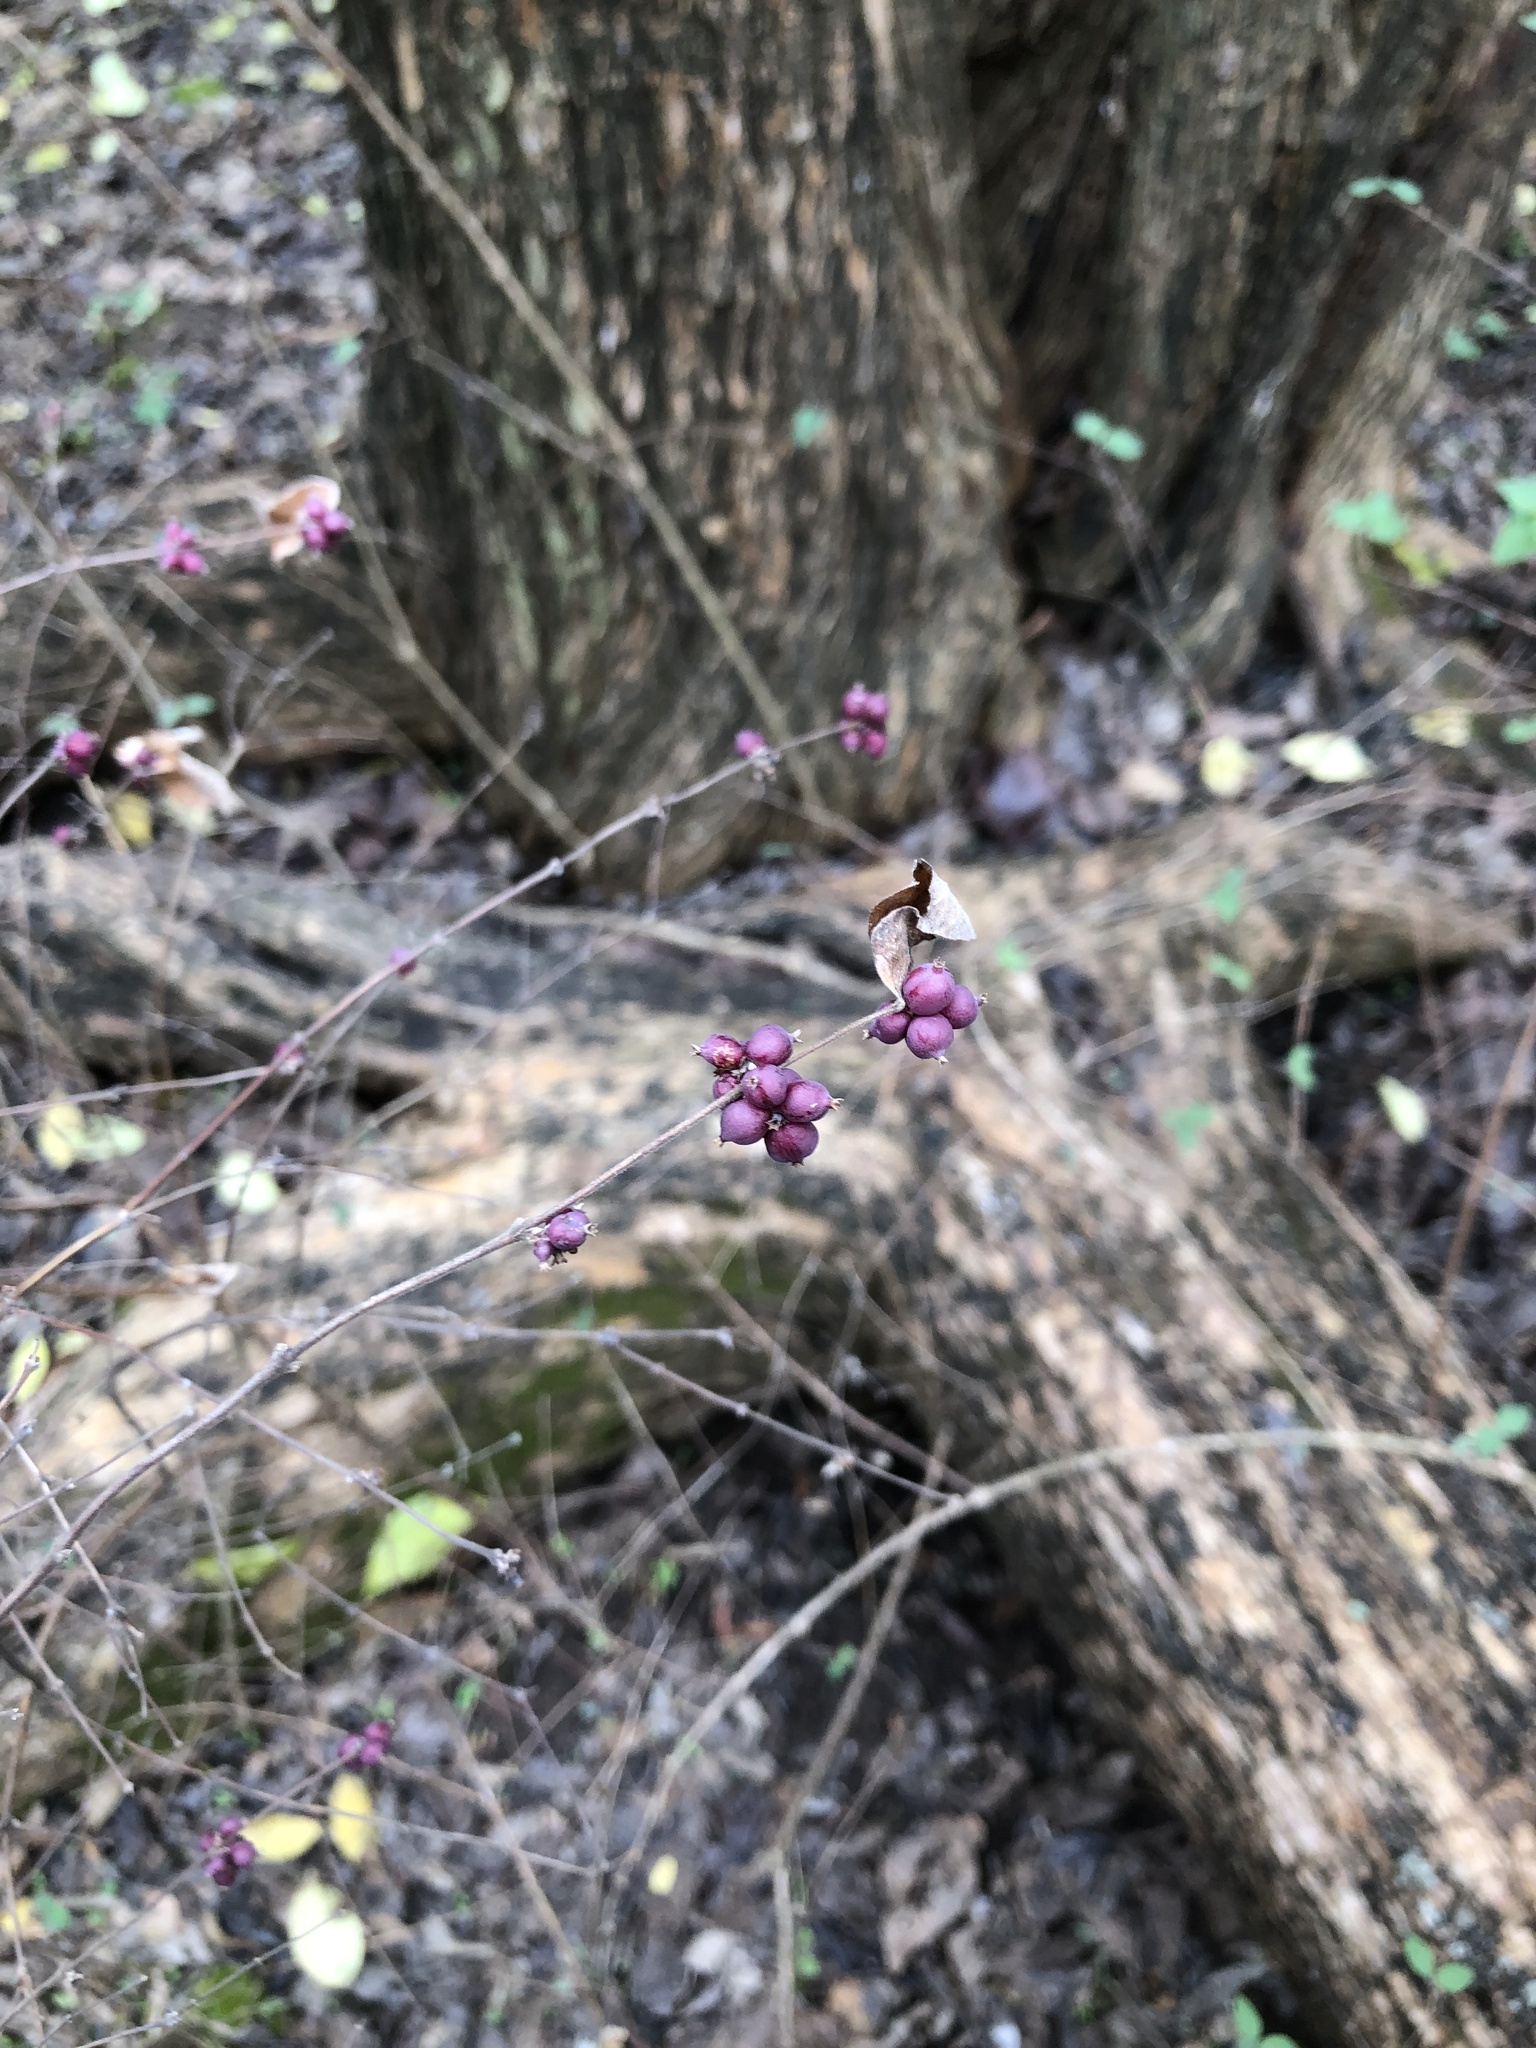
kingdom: Plantae
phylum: Tracheophyta
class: Magnoliopsida
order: Dipsacales
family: Caprifoliaceae
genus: Symphoricarpos
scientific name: Symphoricarpos orbiculatus
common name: Coralberry
